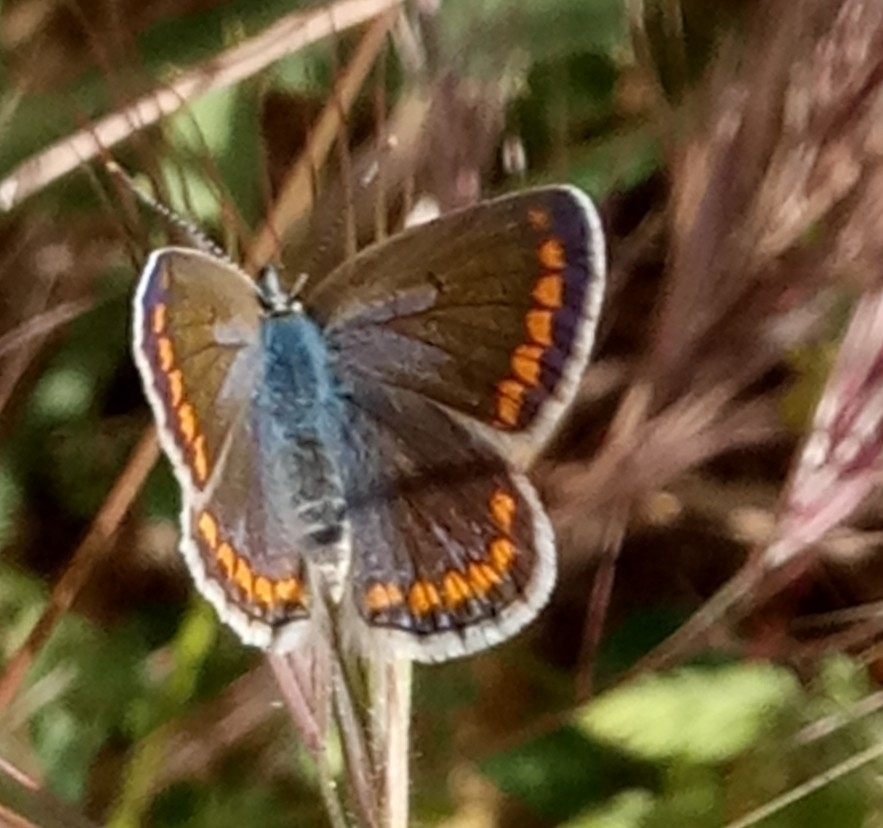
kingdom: Animalia
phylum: Arthropoda
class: Insecta
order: Lepidoptera
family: Lycaenidae
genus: Polyommatus
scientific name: Polyommatus celina
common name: Austaut's blue
